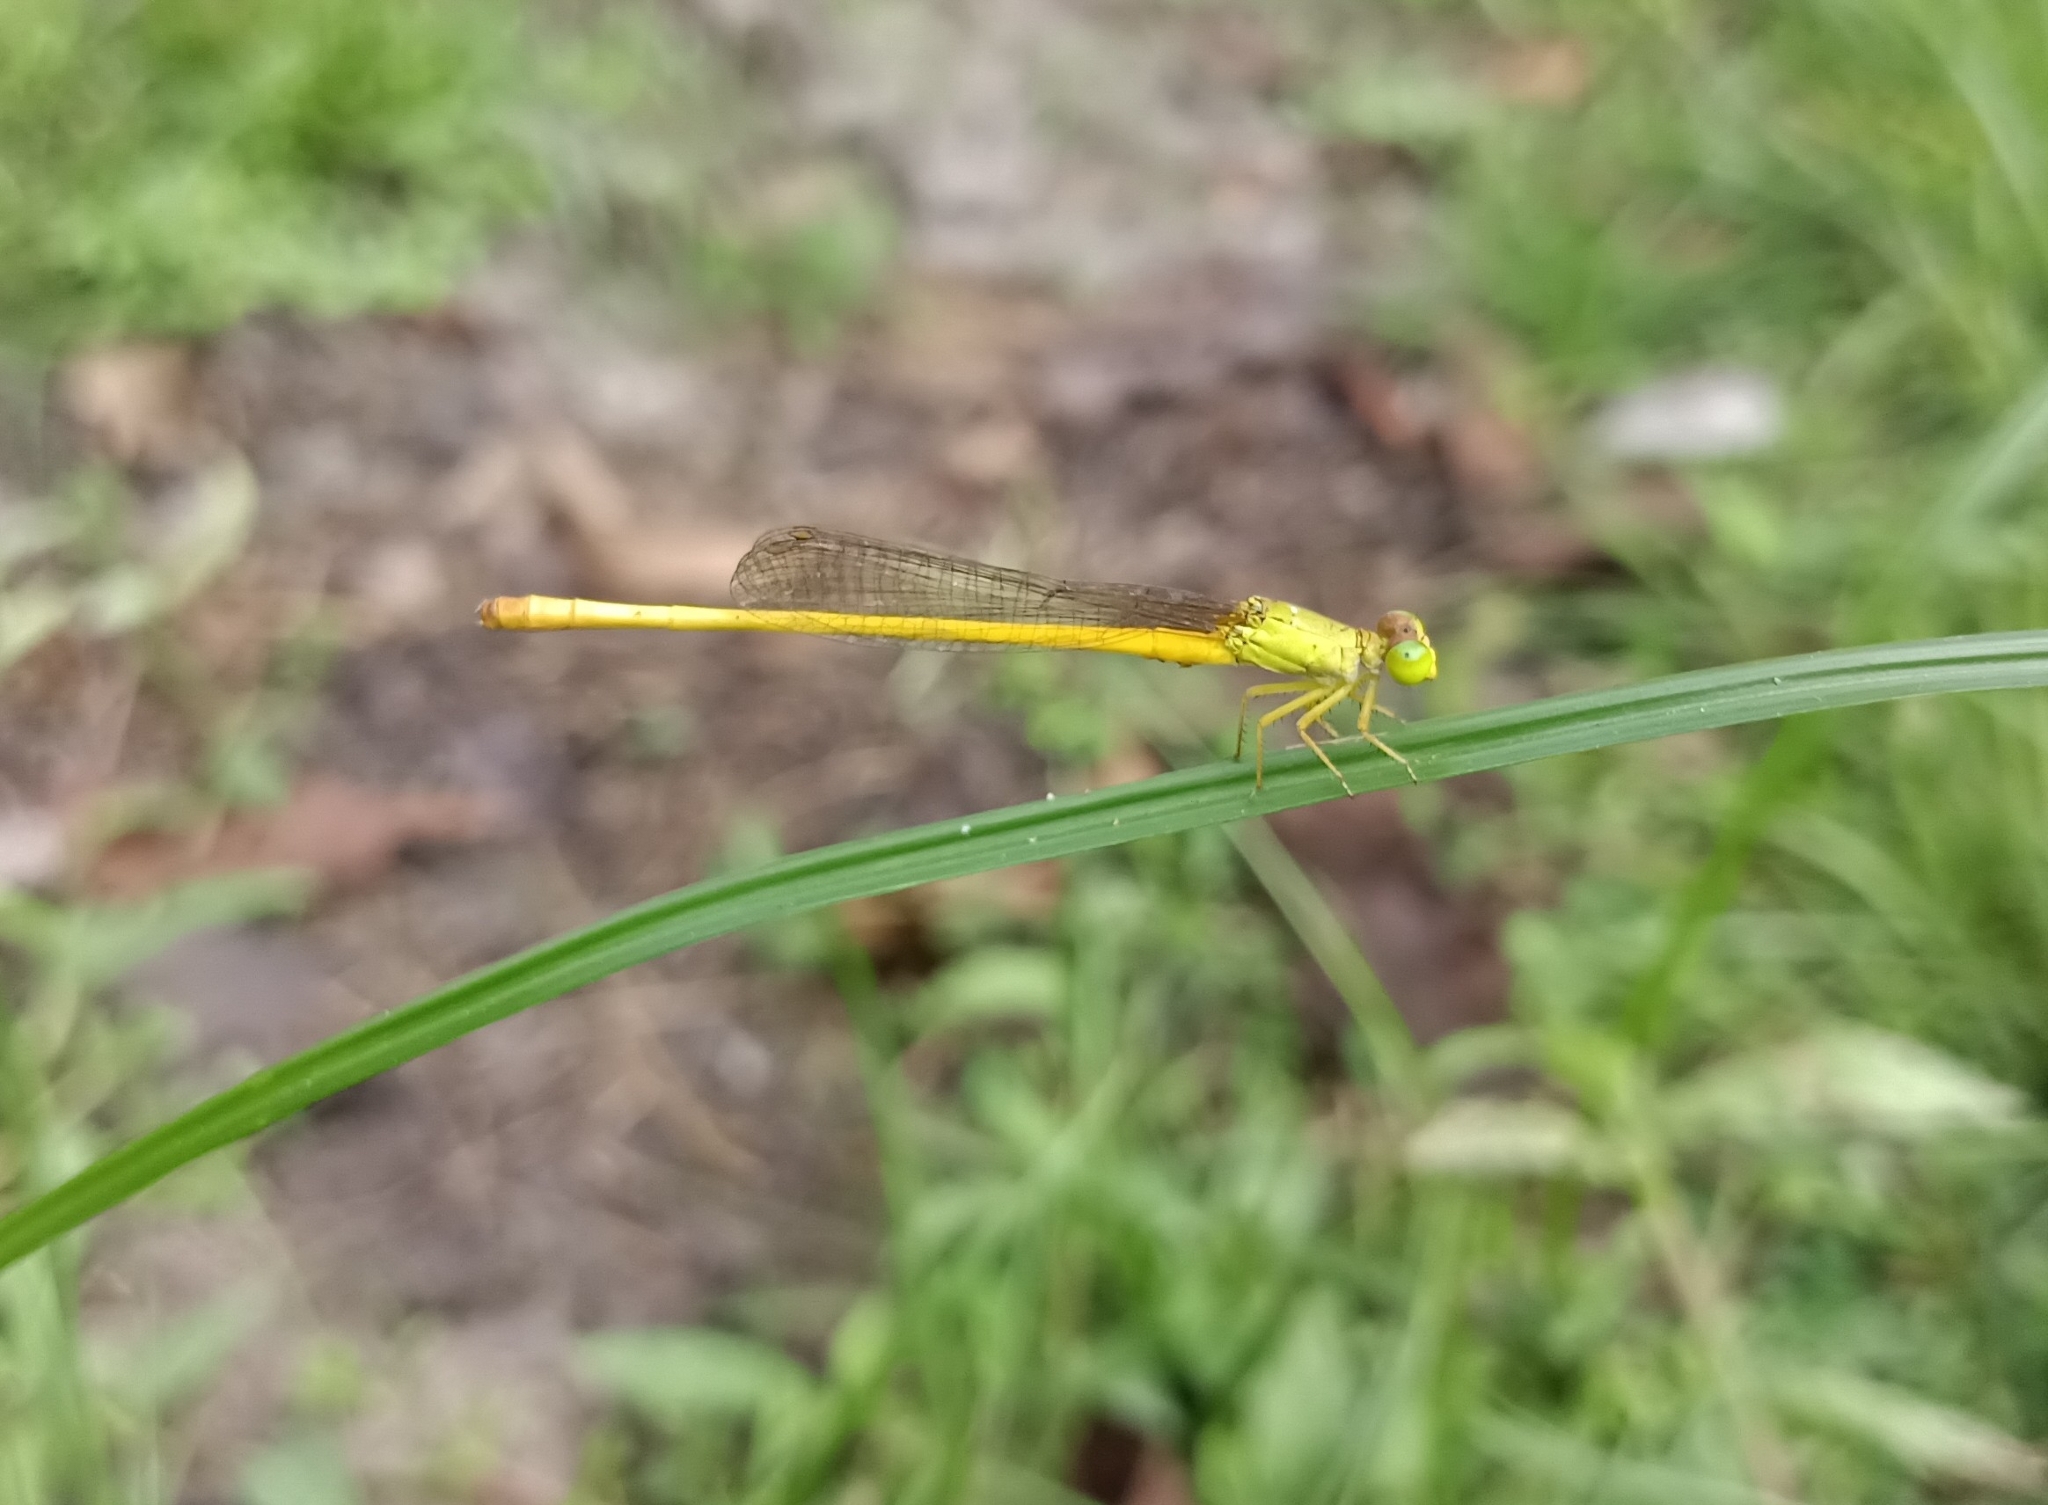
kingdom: Animalia
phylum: Arthropoda
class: Insecta
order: Odonata
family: Coenagrionidae
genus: Ceriagrion
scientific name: Ceriagrion coromandelianum
